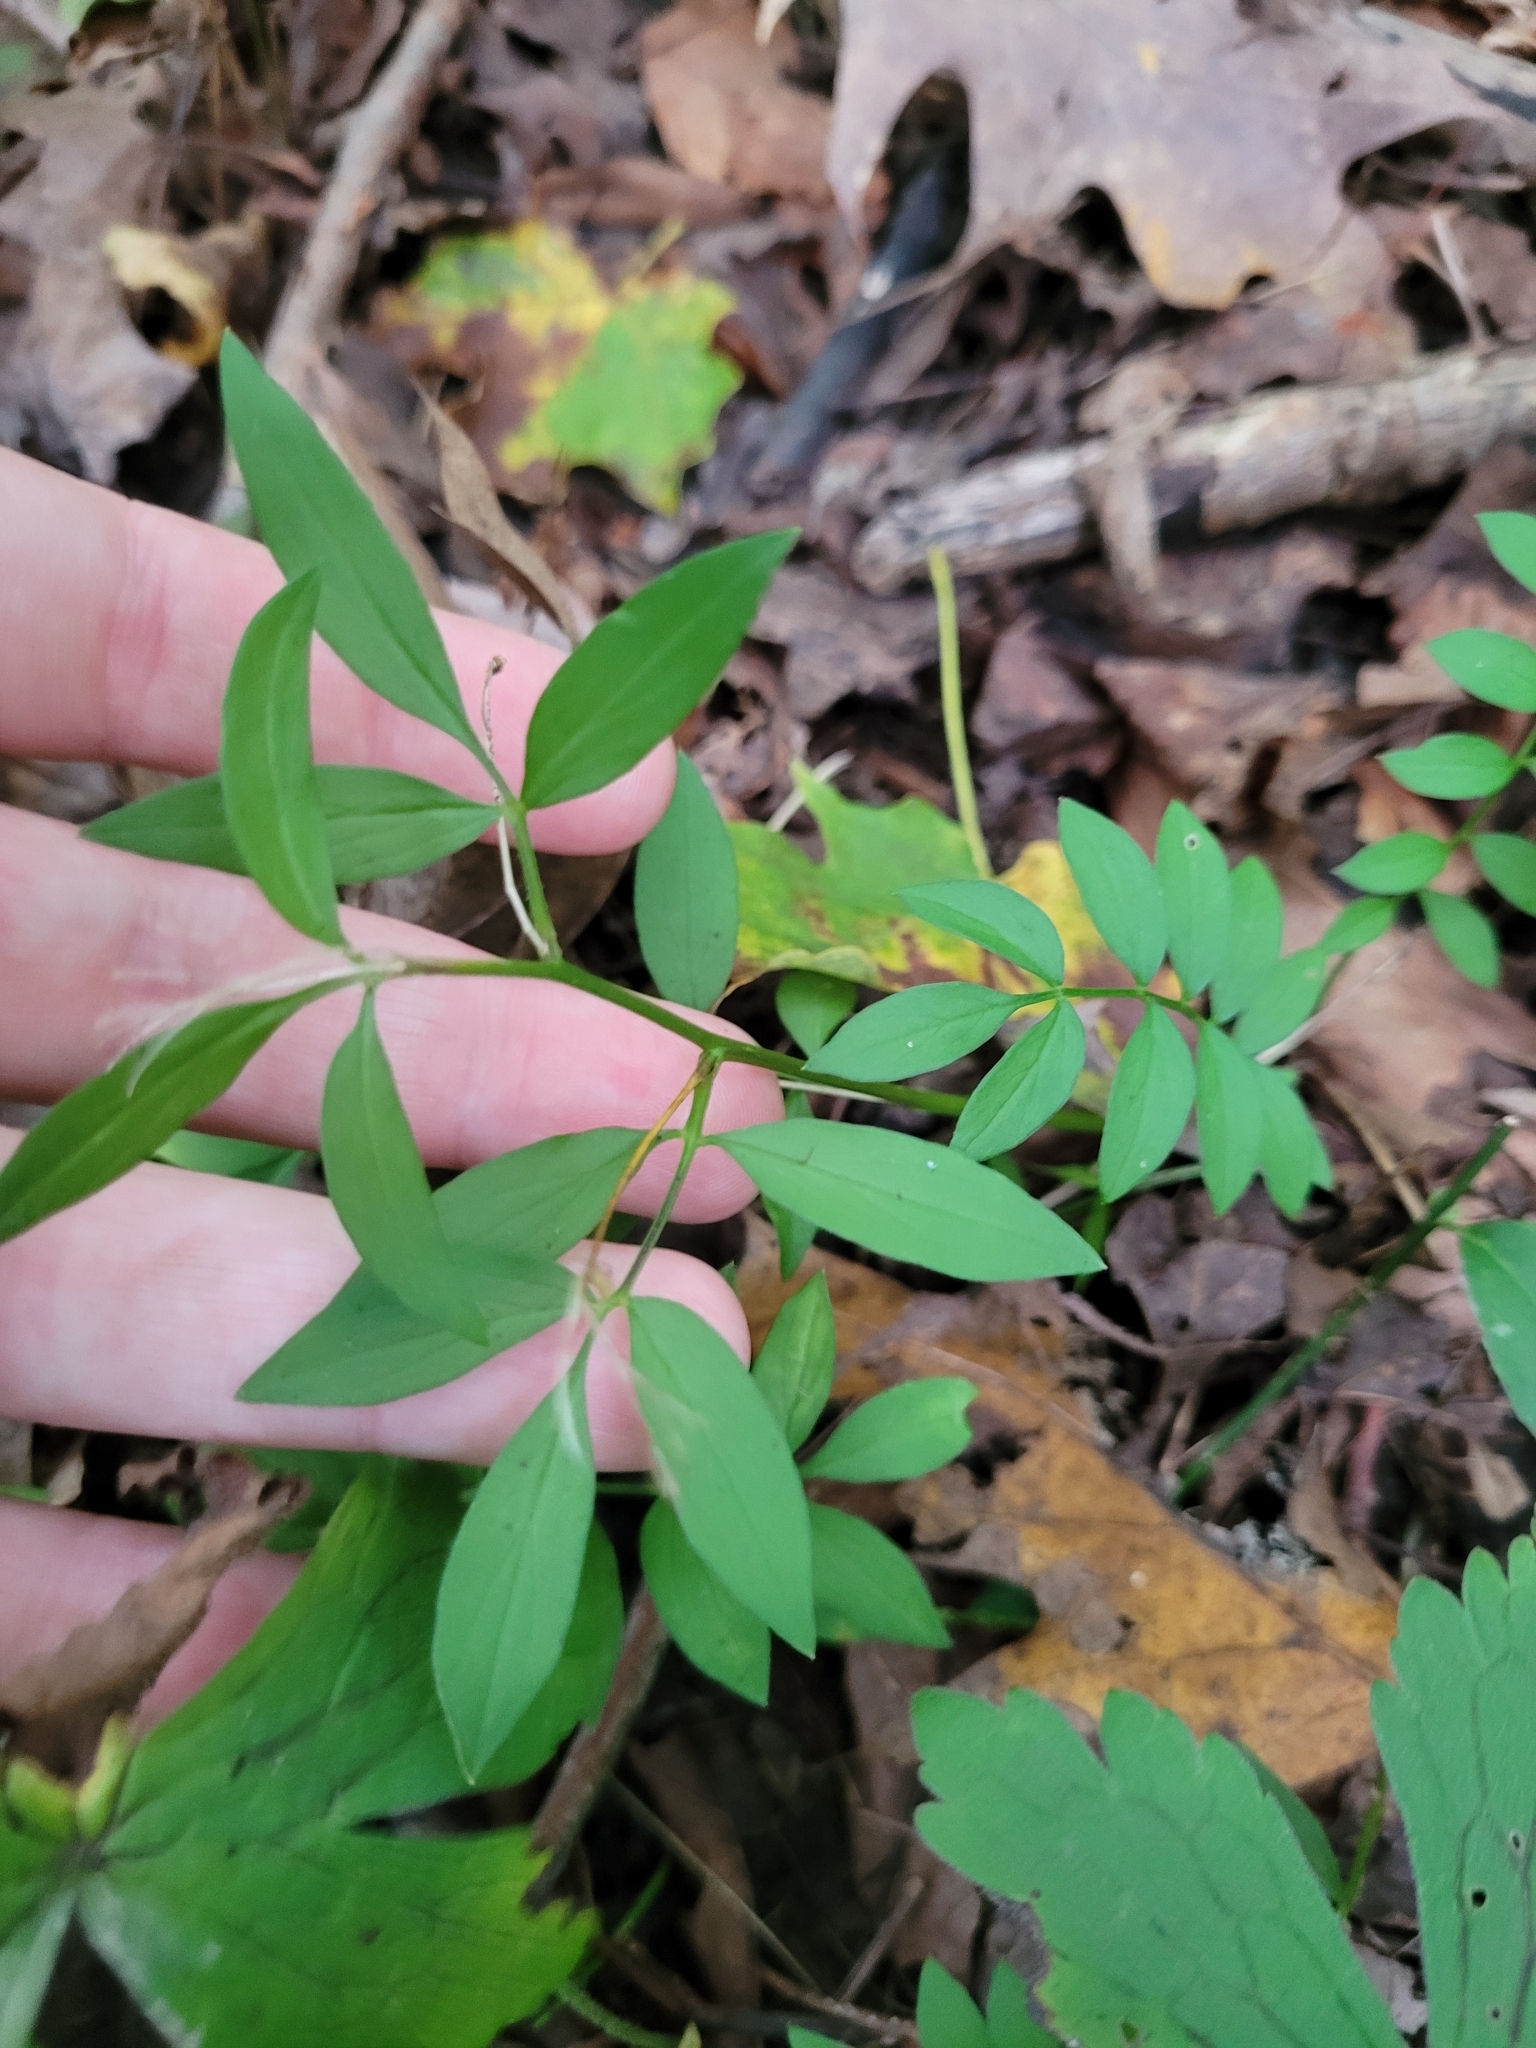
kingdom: Plantae
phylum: Tracheophyta
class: Magnoliopsida
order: Ericales
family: Polemoniaceae
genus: Polemonium
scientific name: Polemonium reptans
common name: Creeping jacob's-ladder
